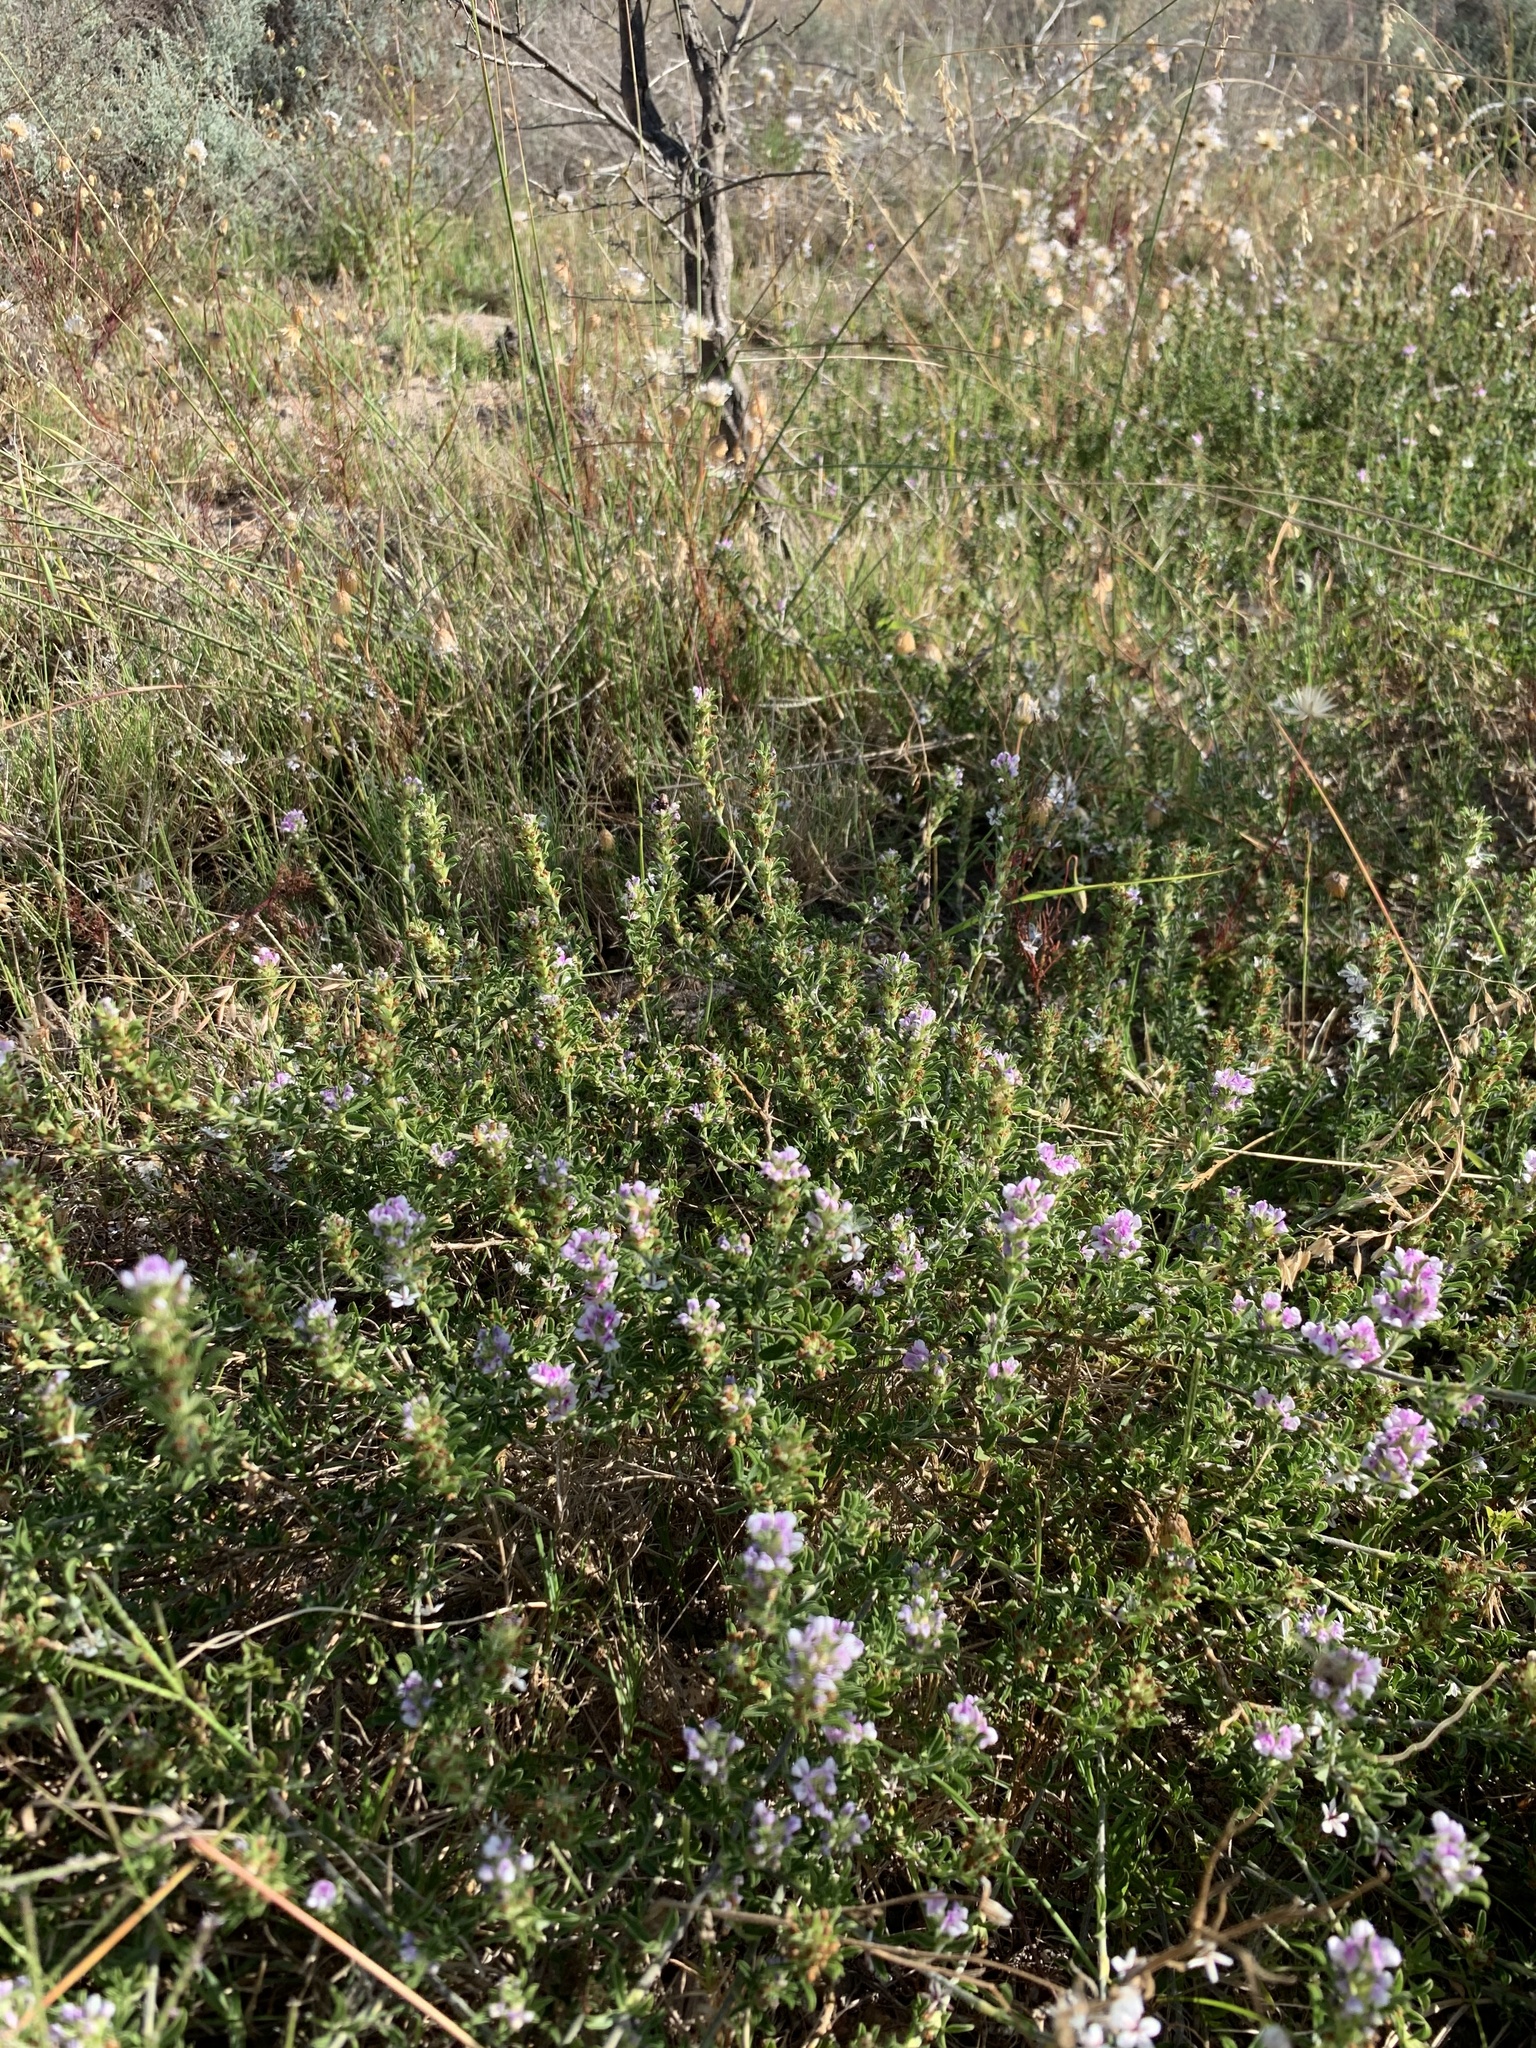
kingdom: Plantae
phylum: Tracheophyta
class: Magnoliopsida
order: Fabales
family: Fabaceae
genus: Psoralea
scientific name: Psoralea
